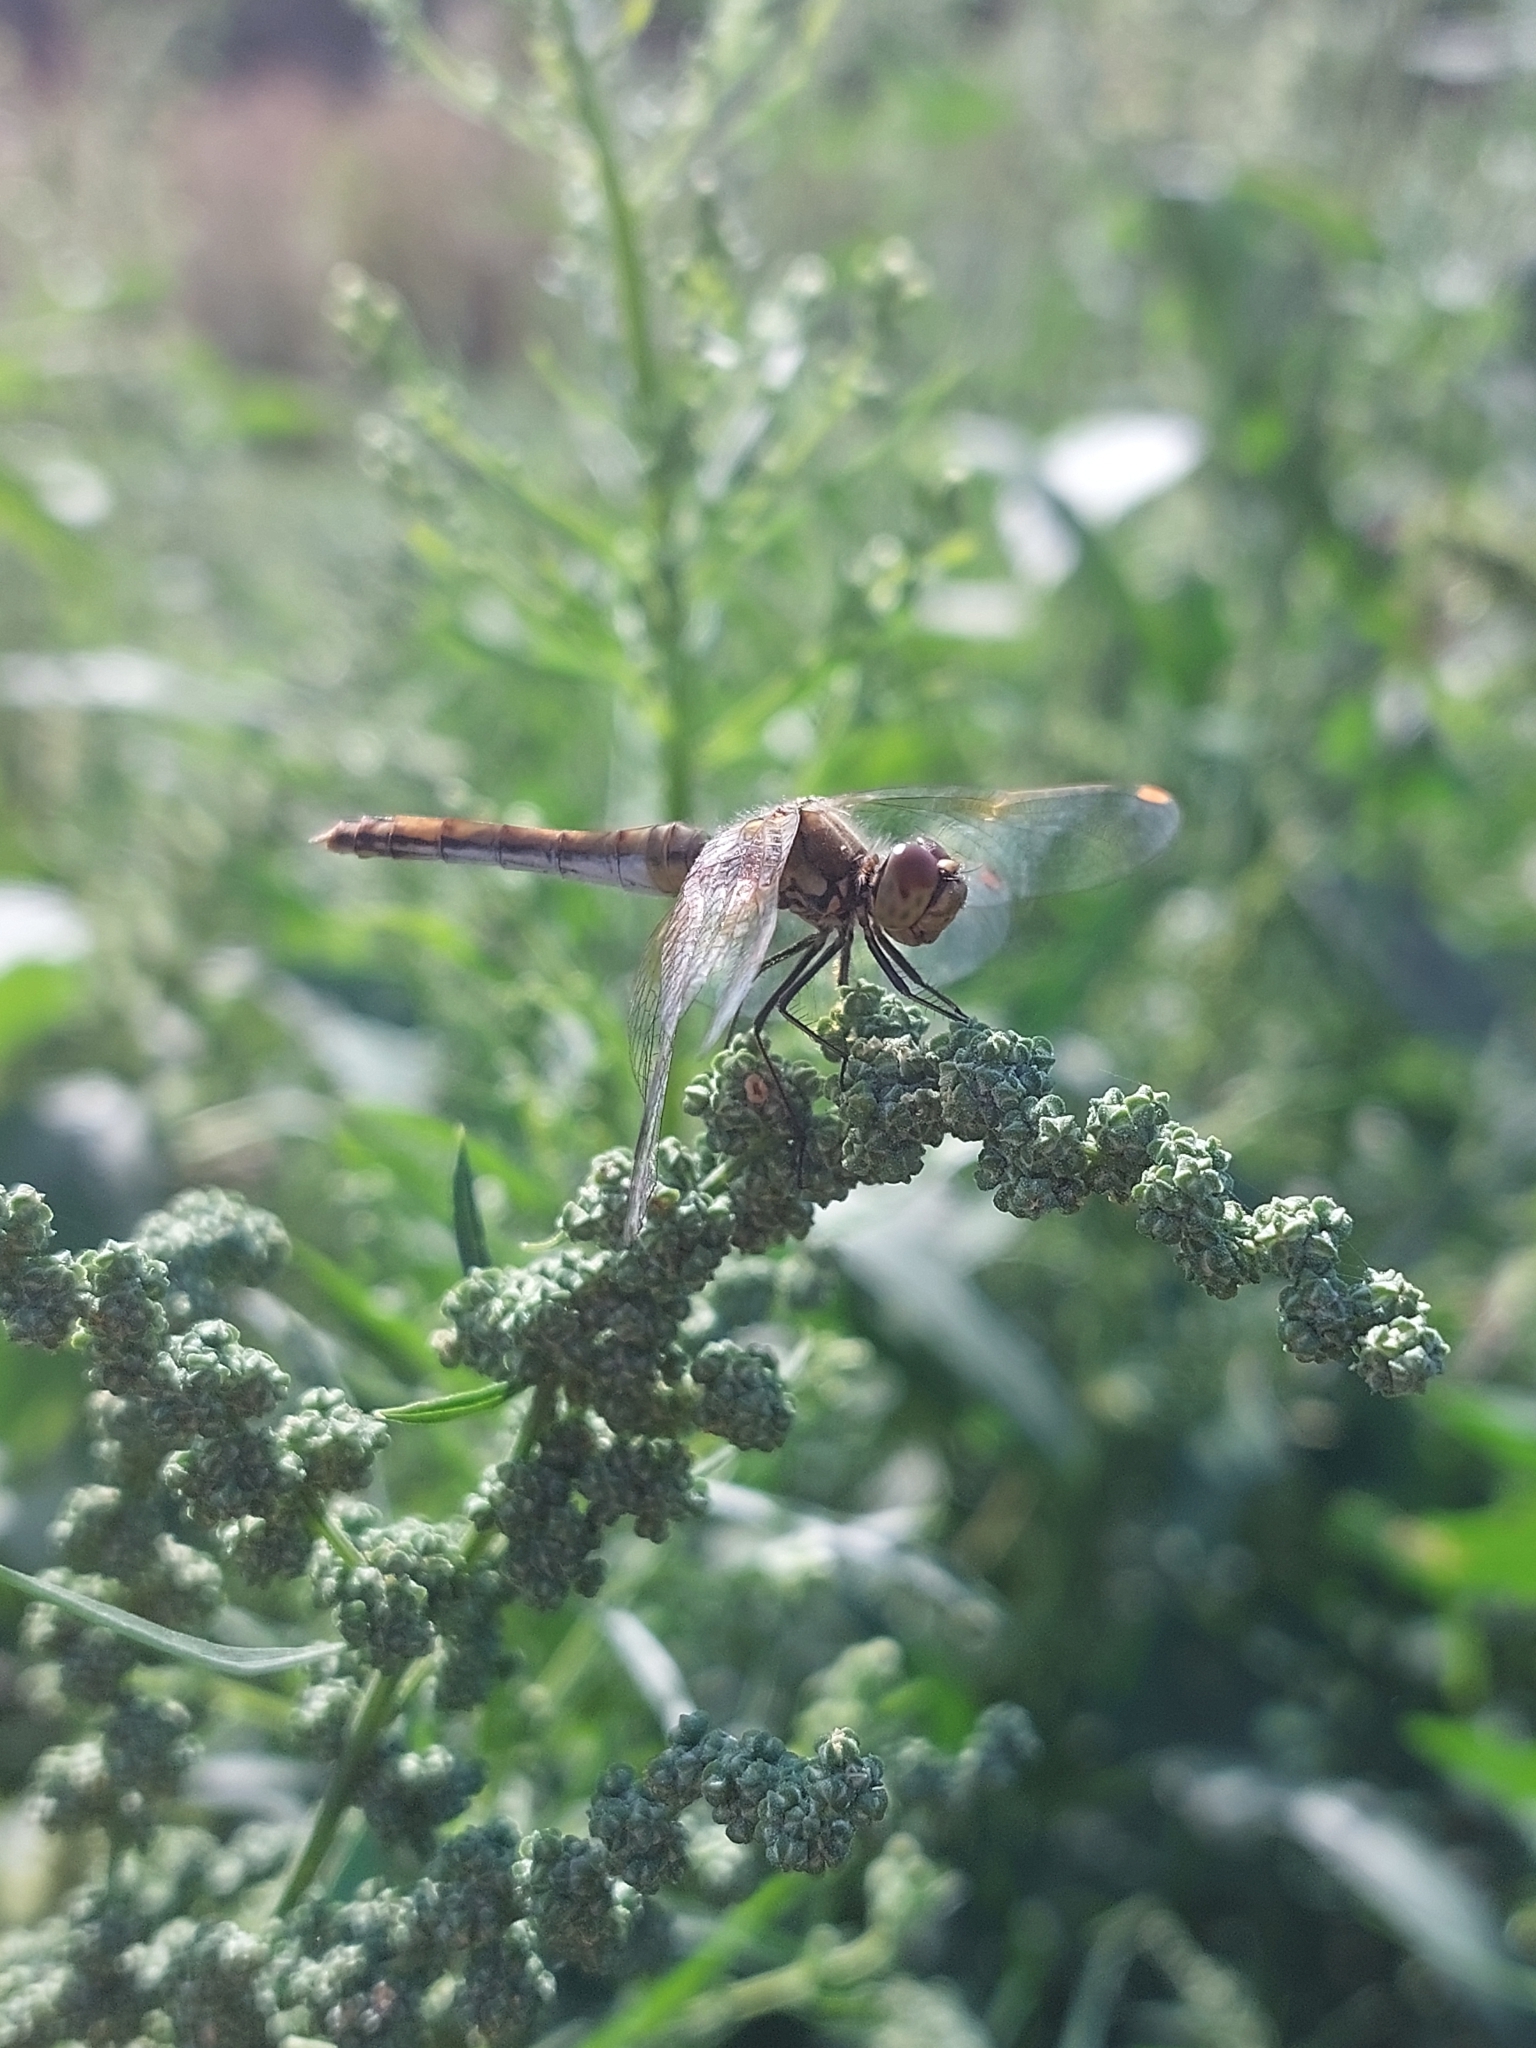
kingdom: Animalia
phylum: Arthropoda
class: Insecta
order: Odonata
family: Libellulidae
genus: Sympetrum
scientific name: Sympetrum flaveolum
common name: Yellow-winged darter
